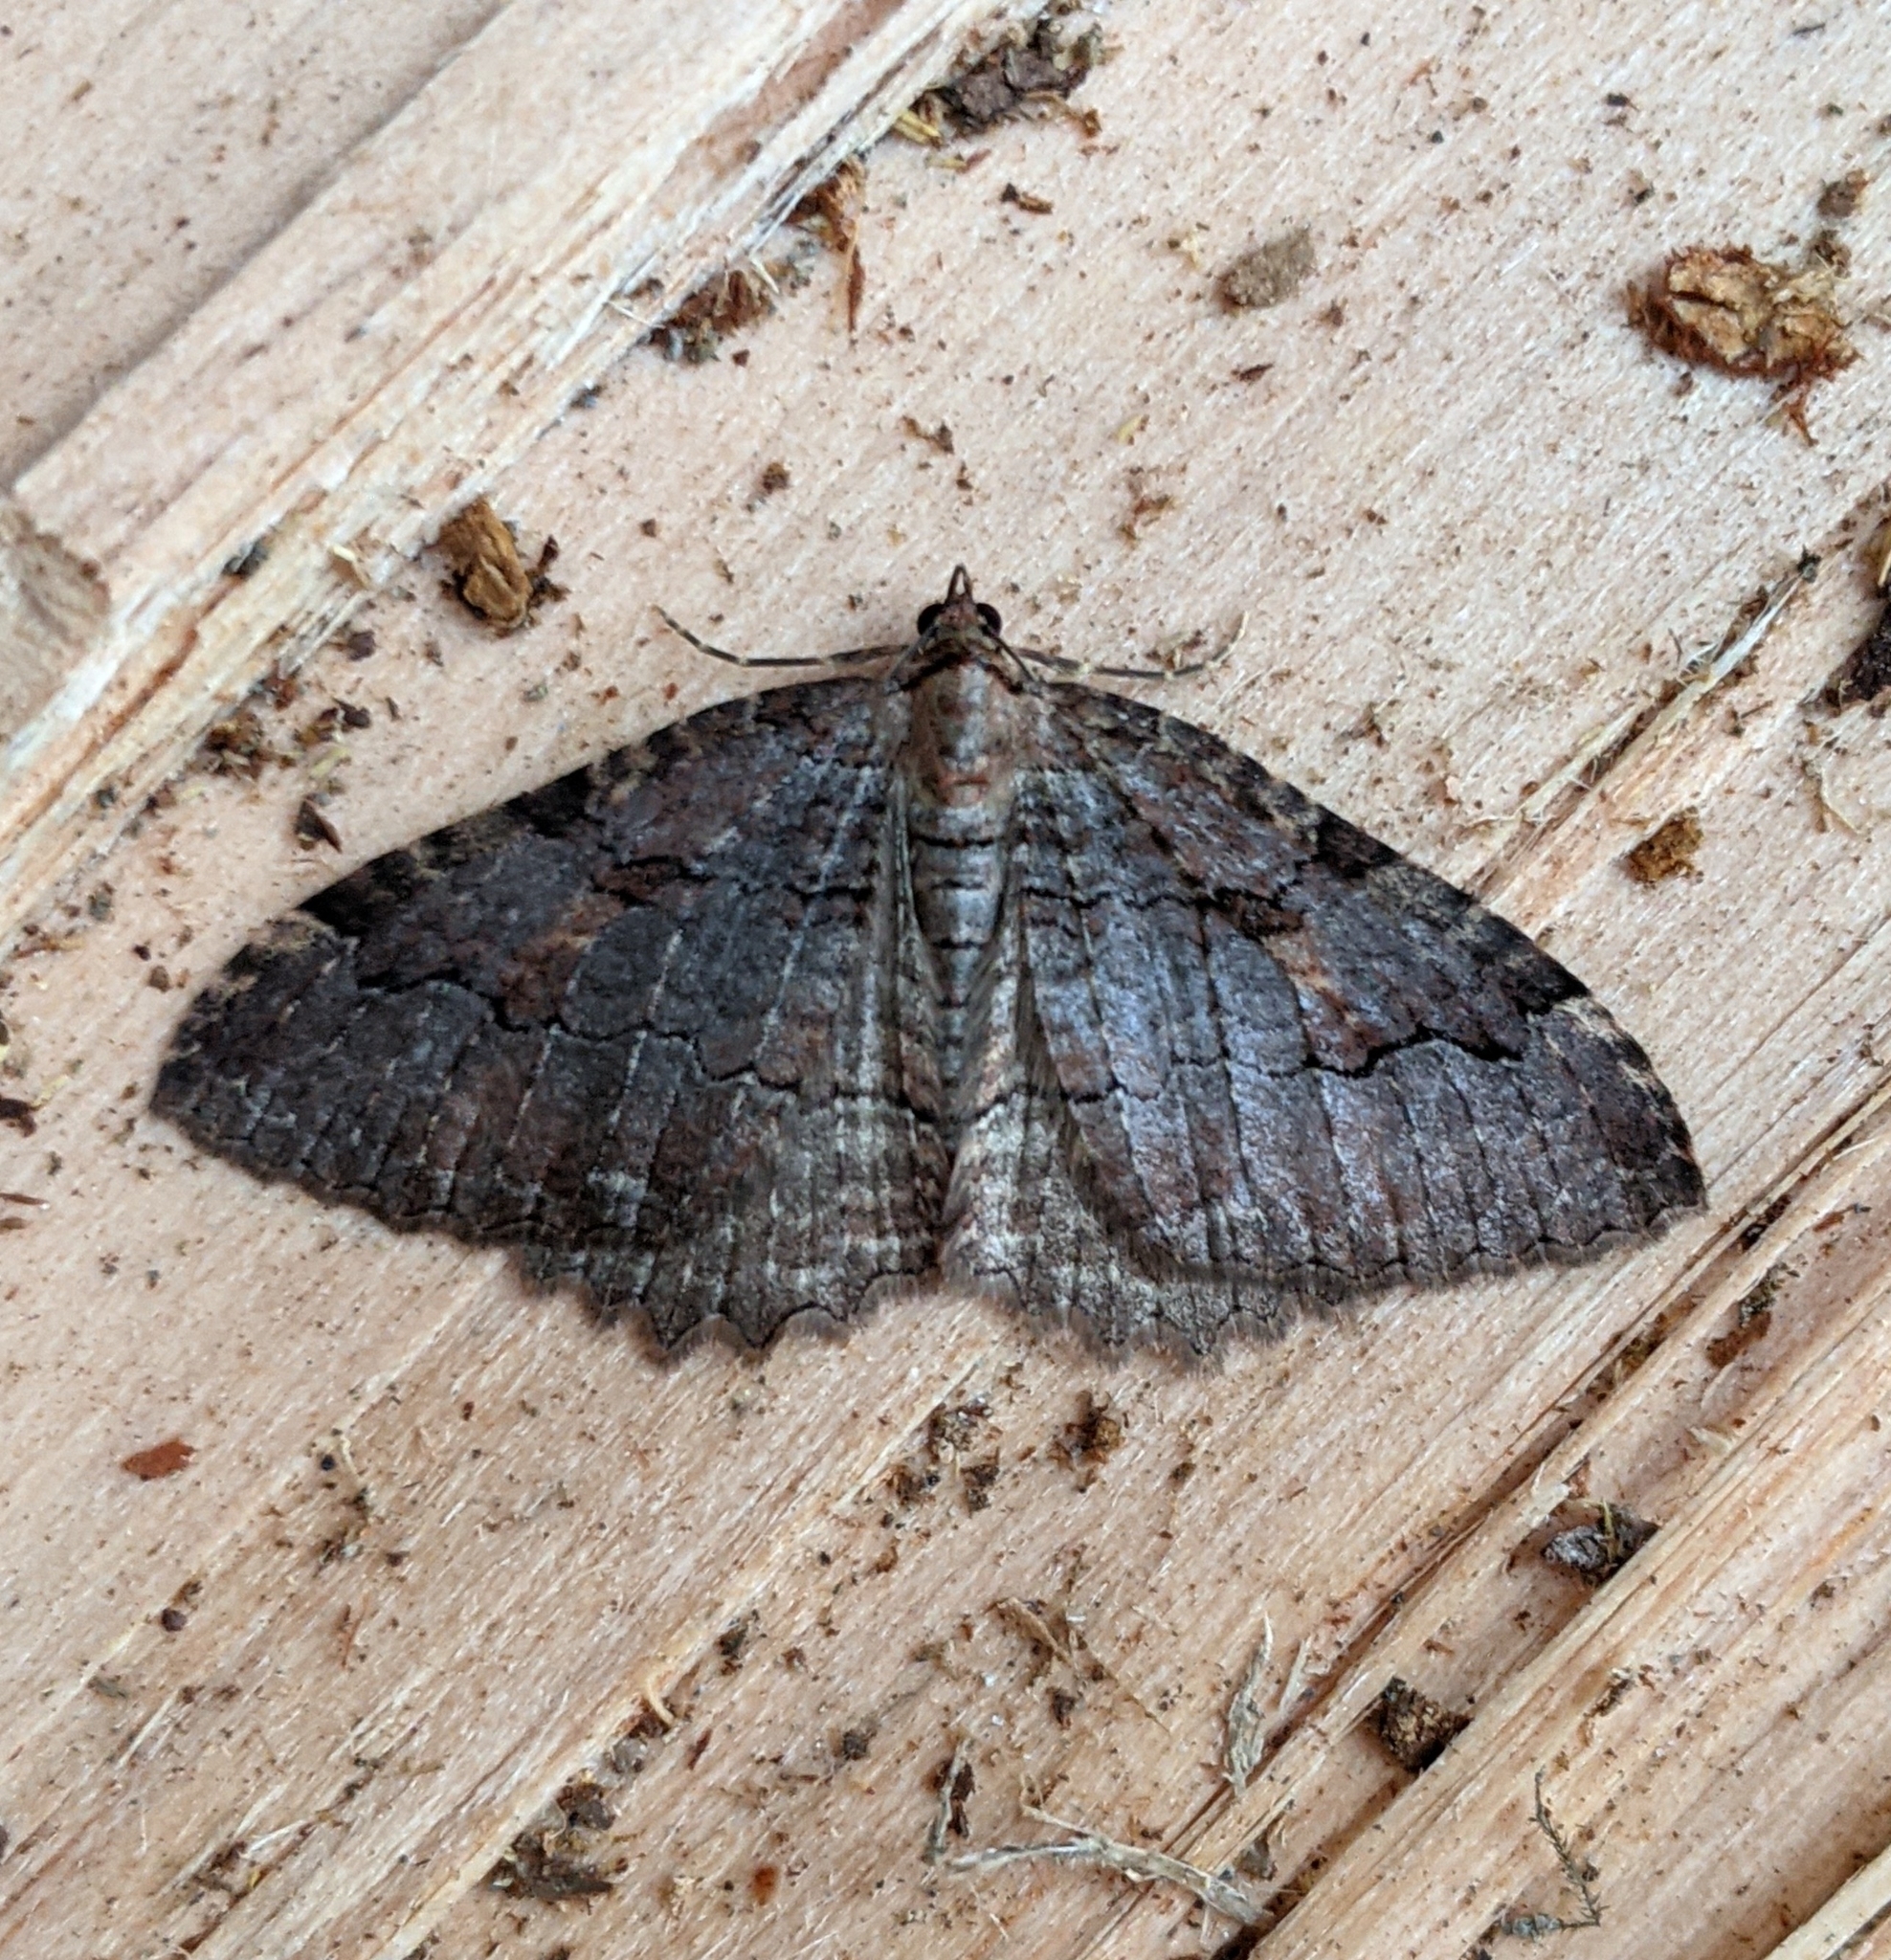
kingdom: Animalia
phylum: Arthropoda
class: Insecta
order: Lepidoptera
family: Geometridae
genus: Triphosa
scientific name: Triphosa haesitata
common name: Tissue moth
